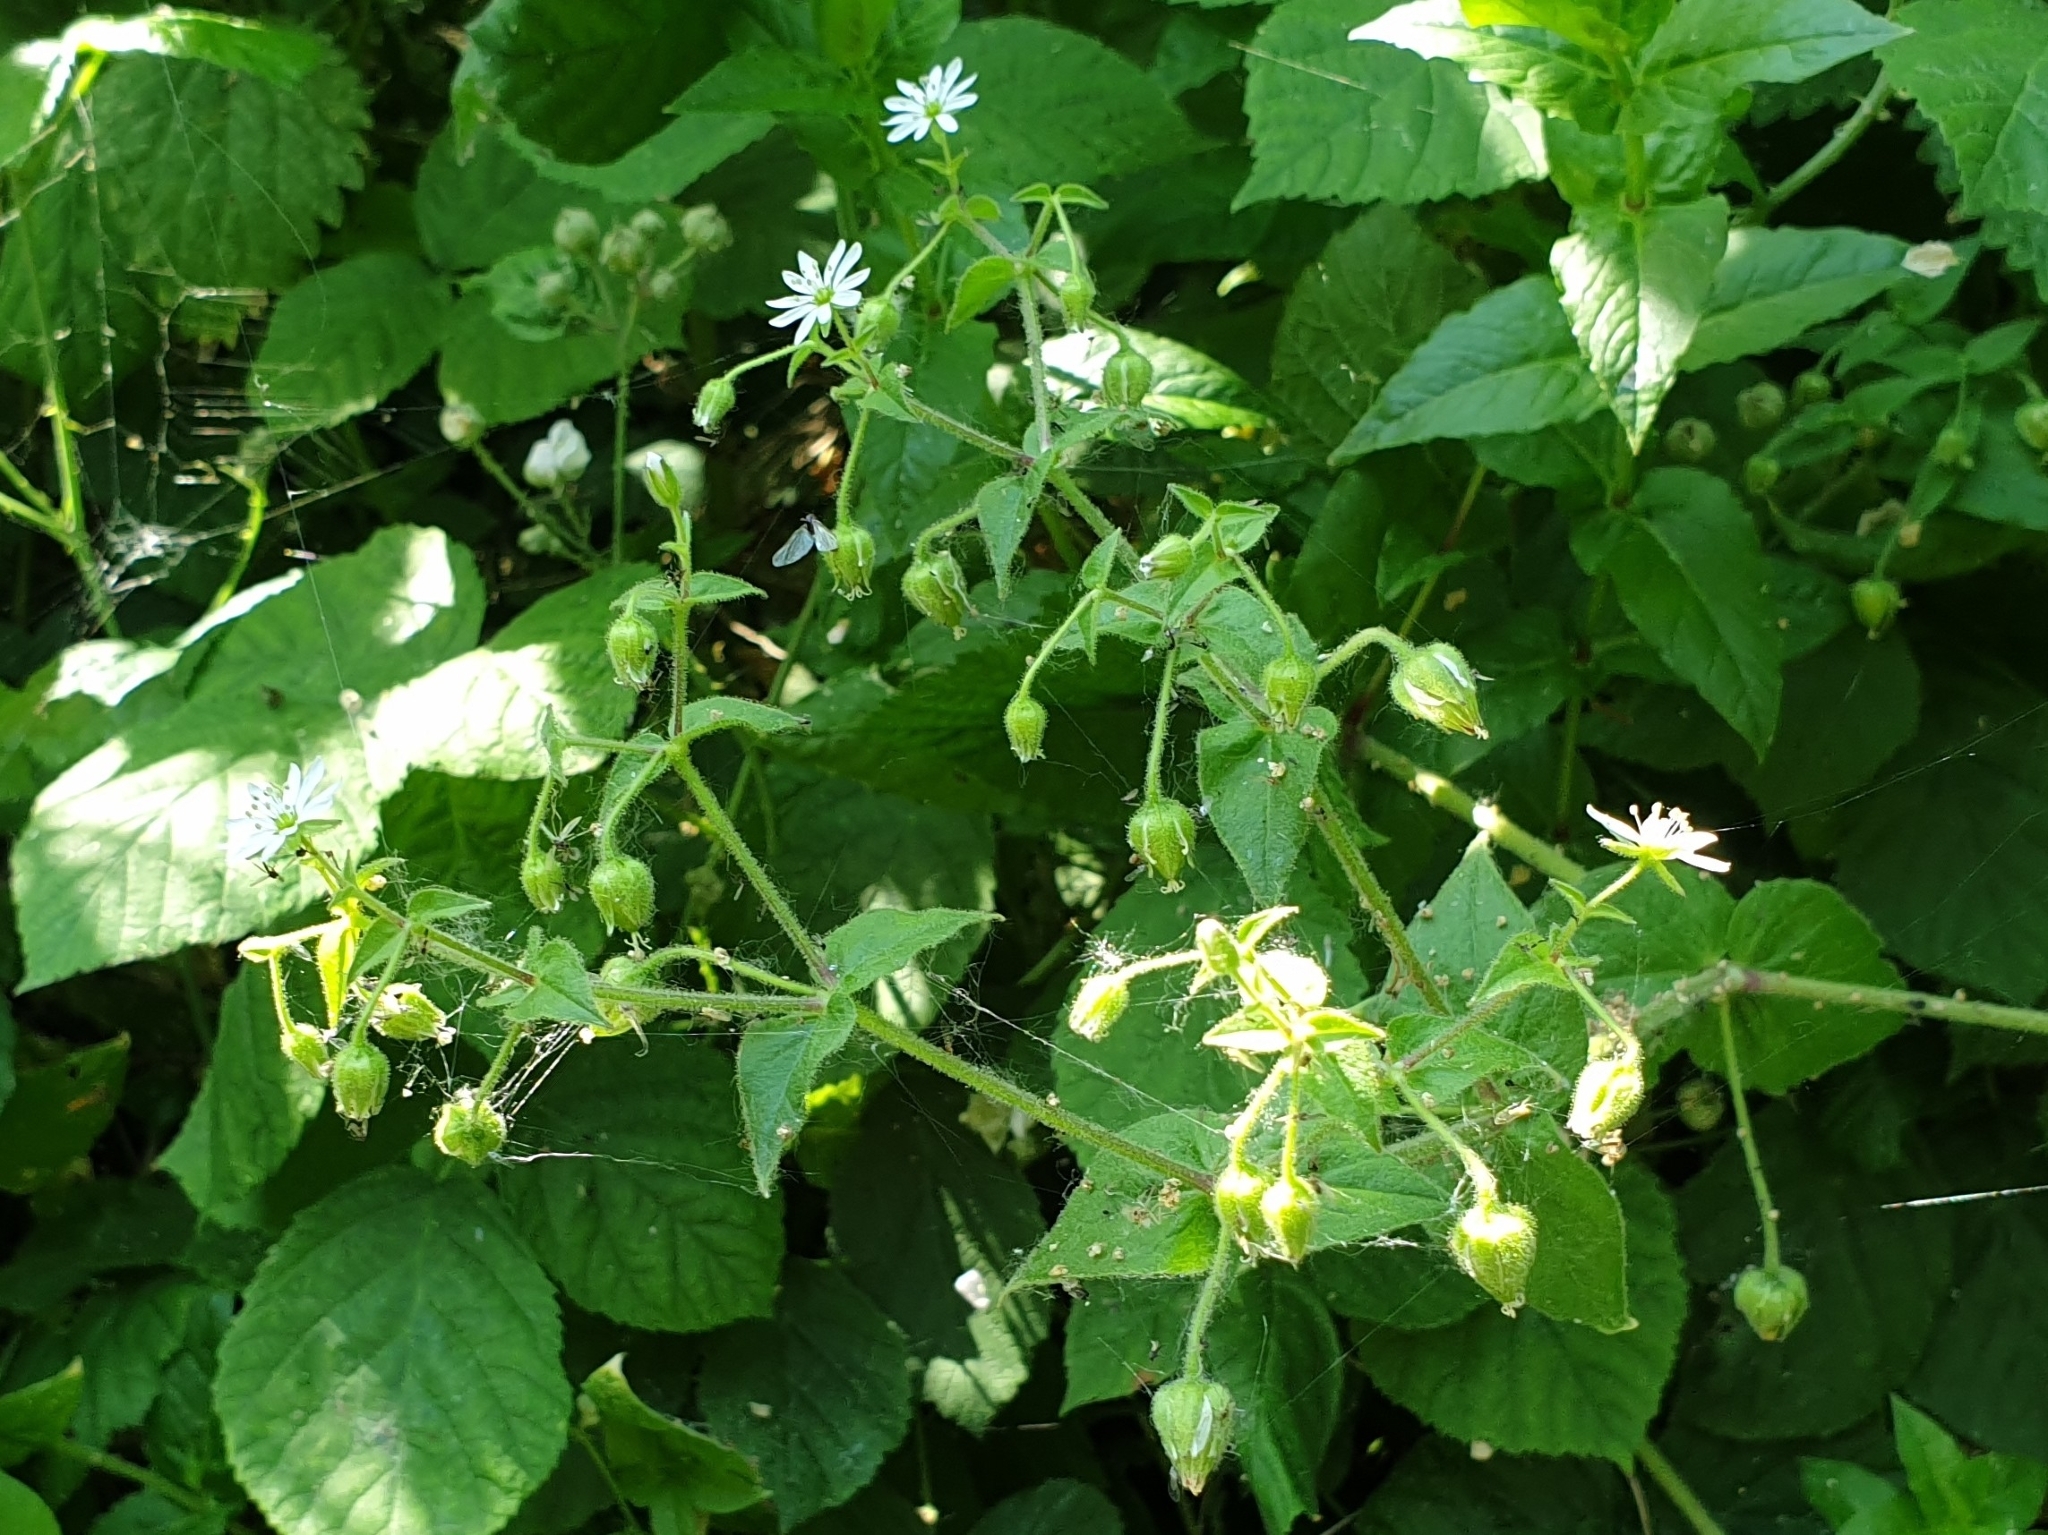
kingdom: Plantae
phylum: Tracheophyta
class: Magnoliopsida
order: Caryophyllales
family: Caryophyllaceae
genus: Stellaria
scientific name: Stellaria aquatica
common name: Water chickweed
